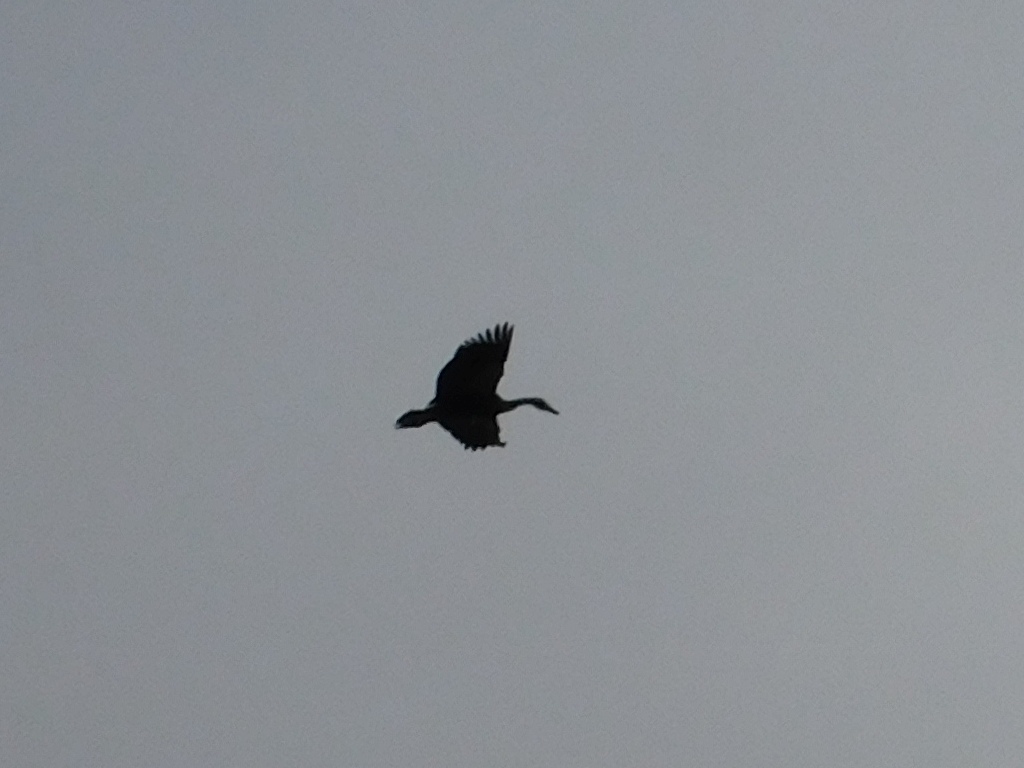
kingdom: Animalia
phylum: Chordata
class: Aves
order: Anseriformes
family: Anatidae
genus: Plectropterus
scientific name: Plectropterus gambensis
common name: Spur-winged goose
